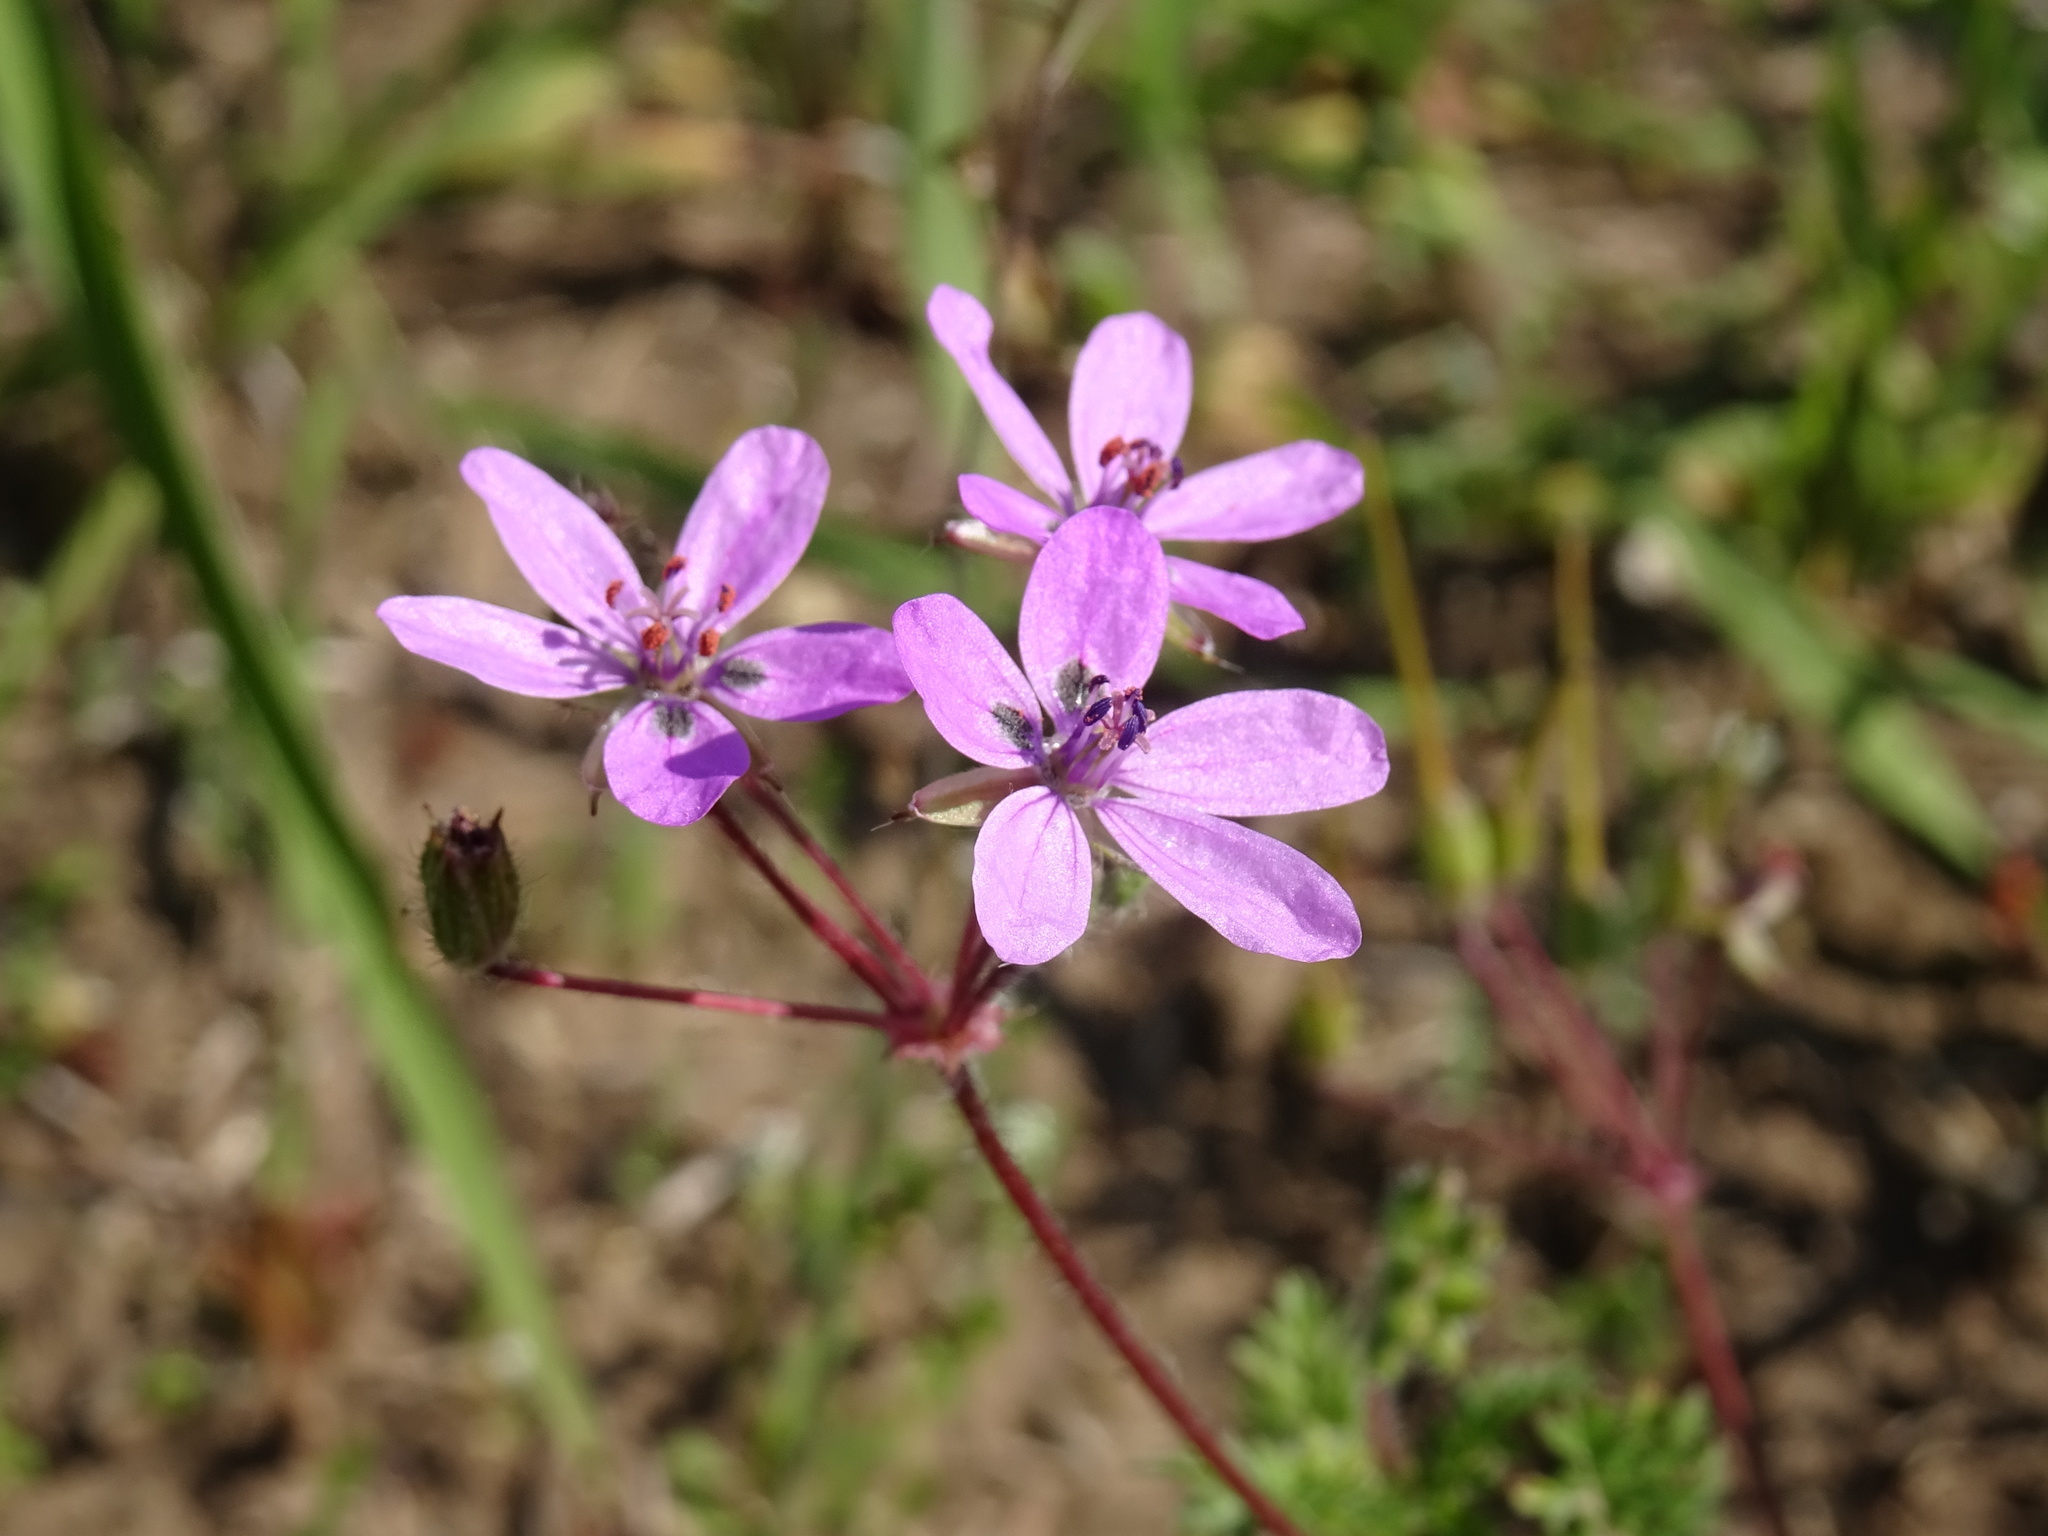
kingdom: Plantae
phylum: Tracheophyta
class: Magnoliopsida
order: Geraniales
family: Geraniaceae
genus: Erodium
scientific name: Erodium cicutarium
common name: Common stork's-bill
